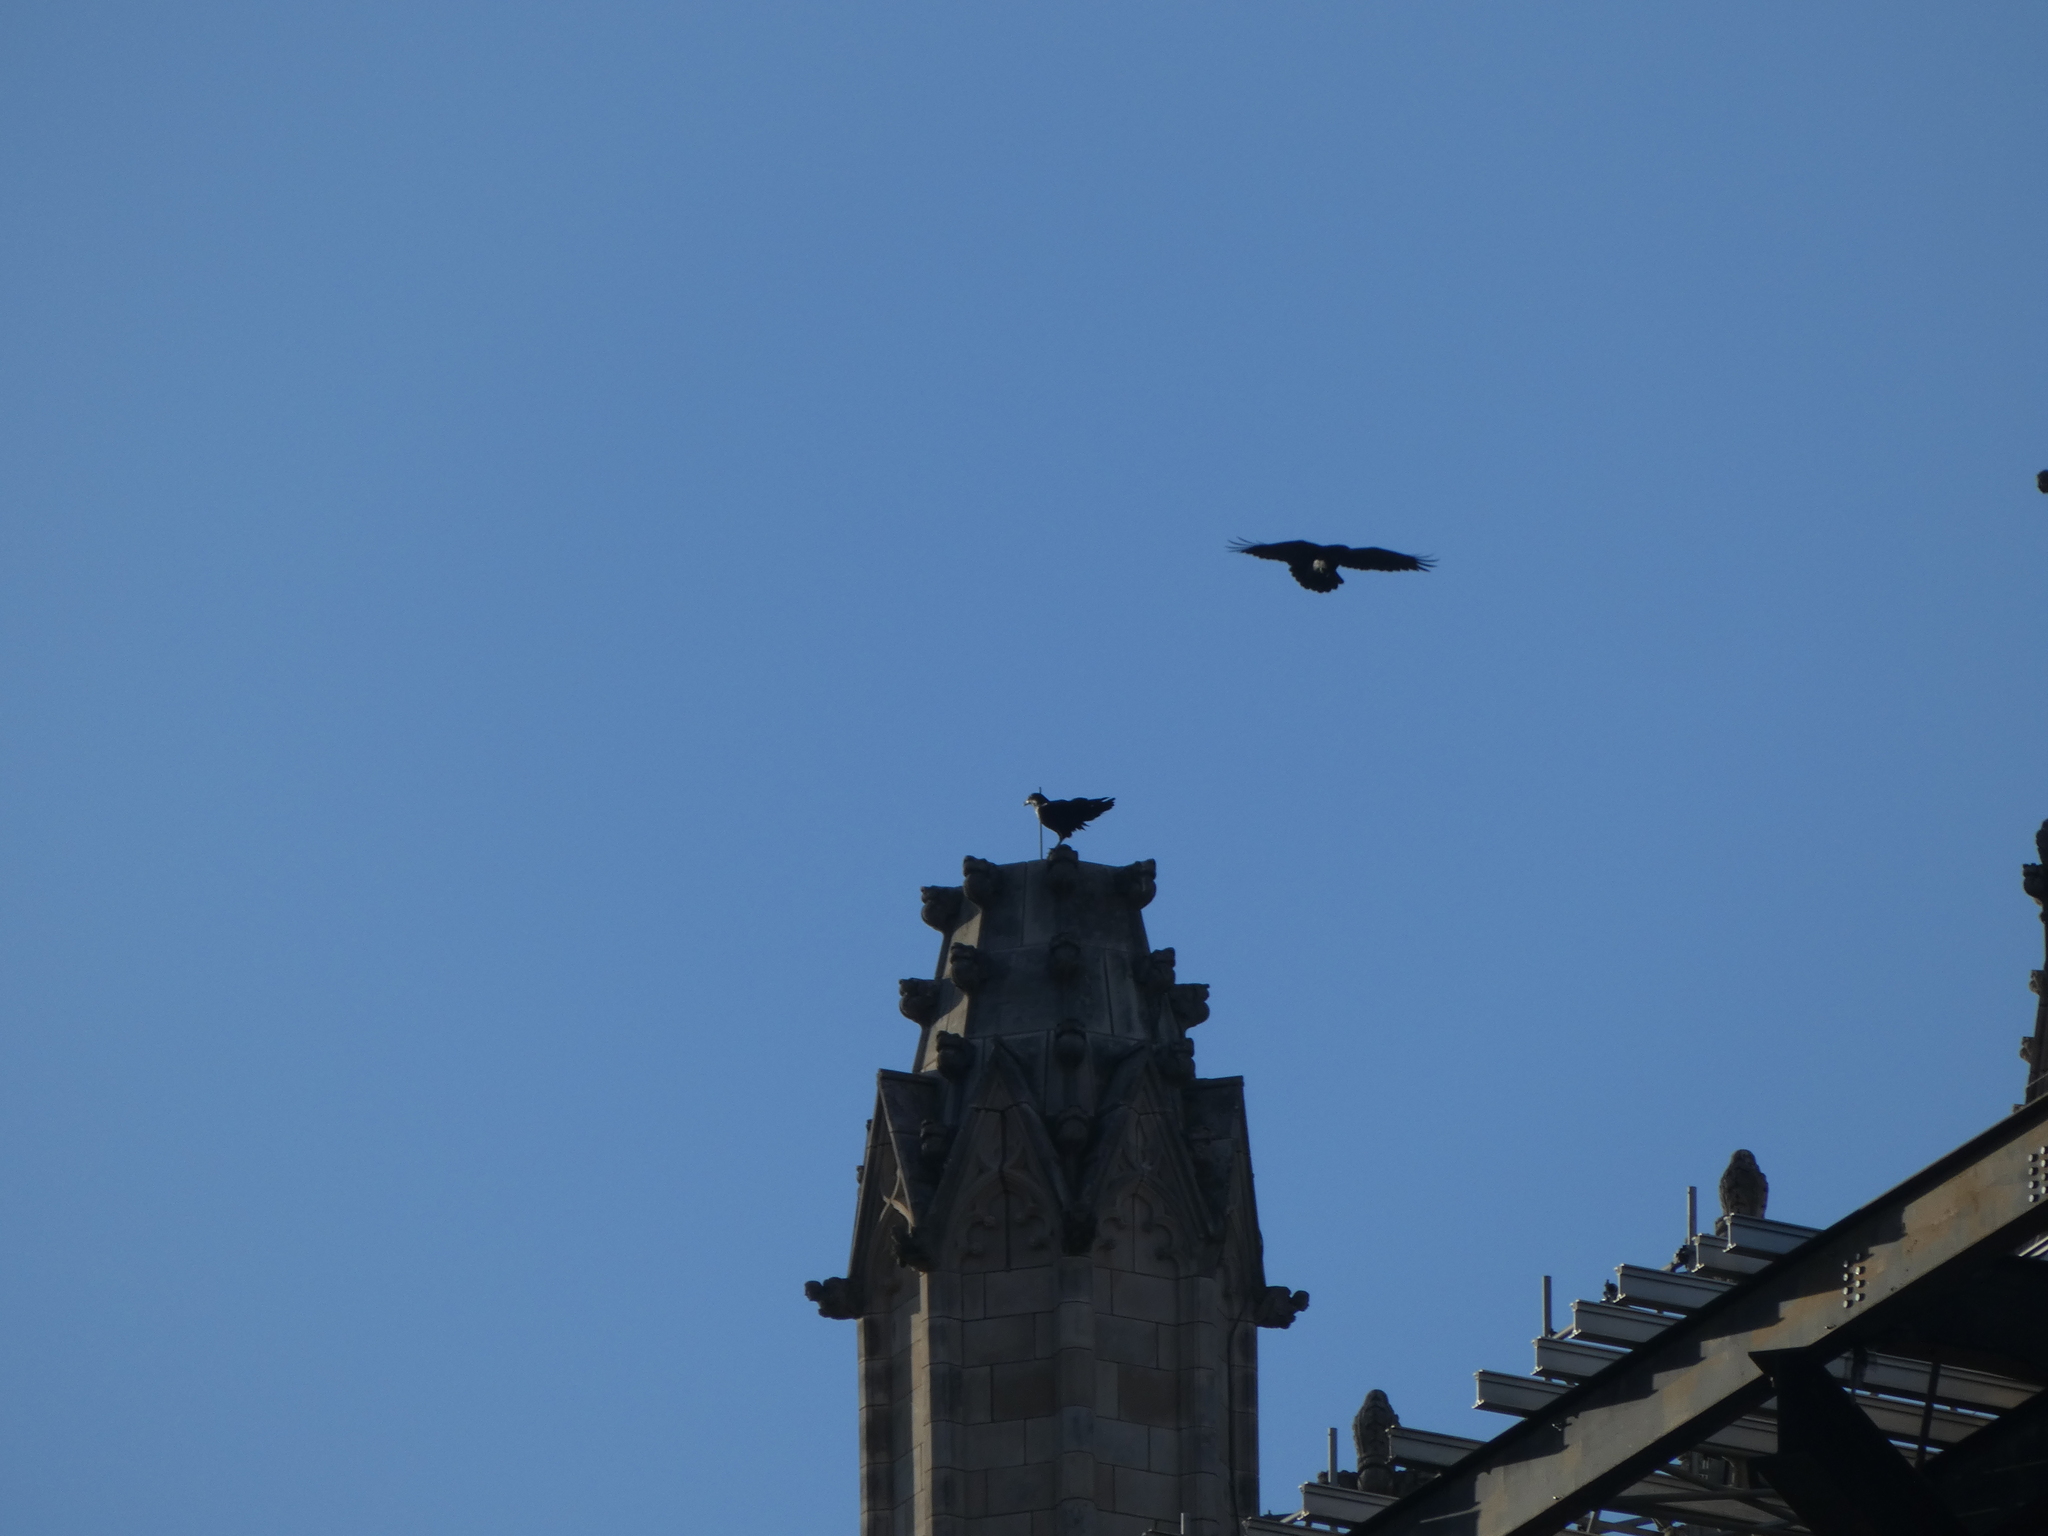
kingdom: Animalia
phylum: Chordata
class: Aves
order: Passeriformes
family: Corvidae
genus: Corvus
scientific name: Corvus corax
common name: Common raven
